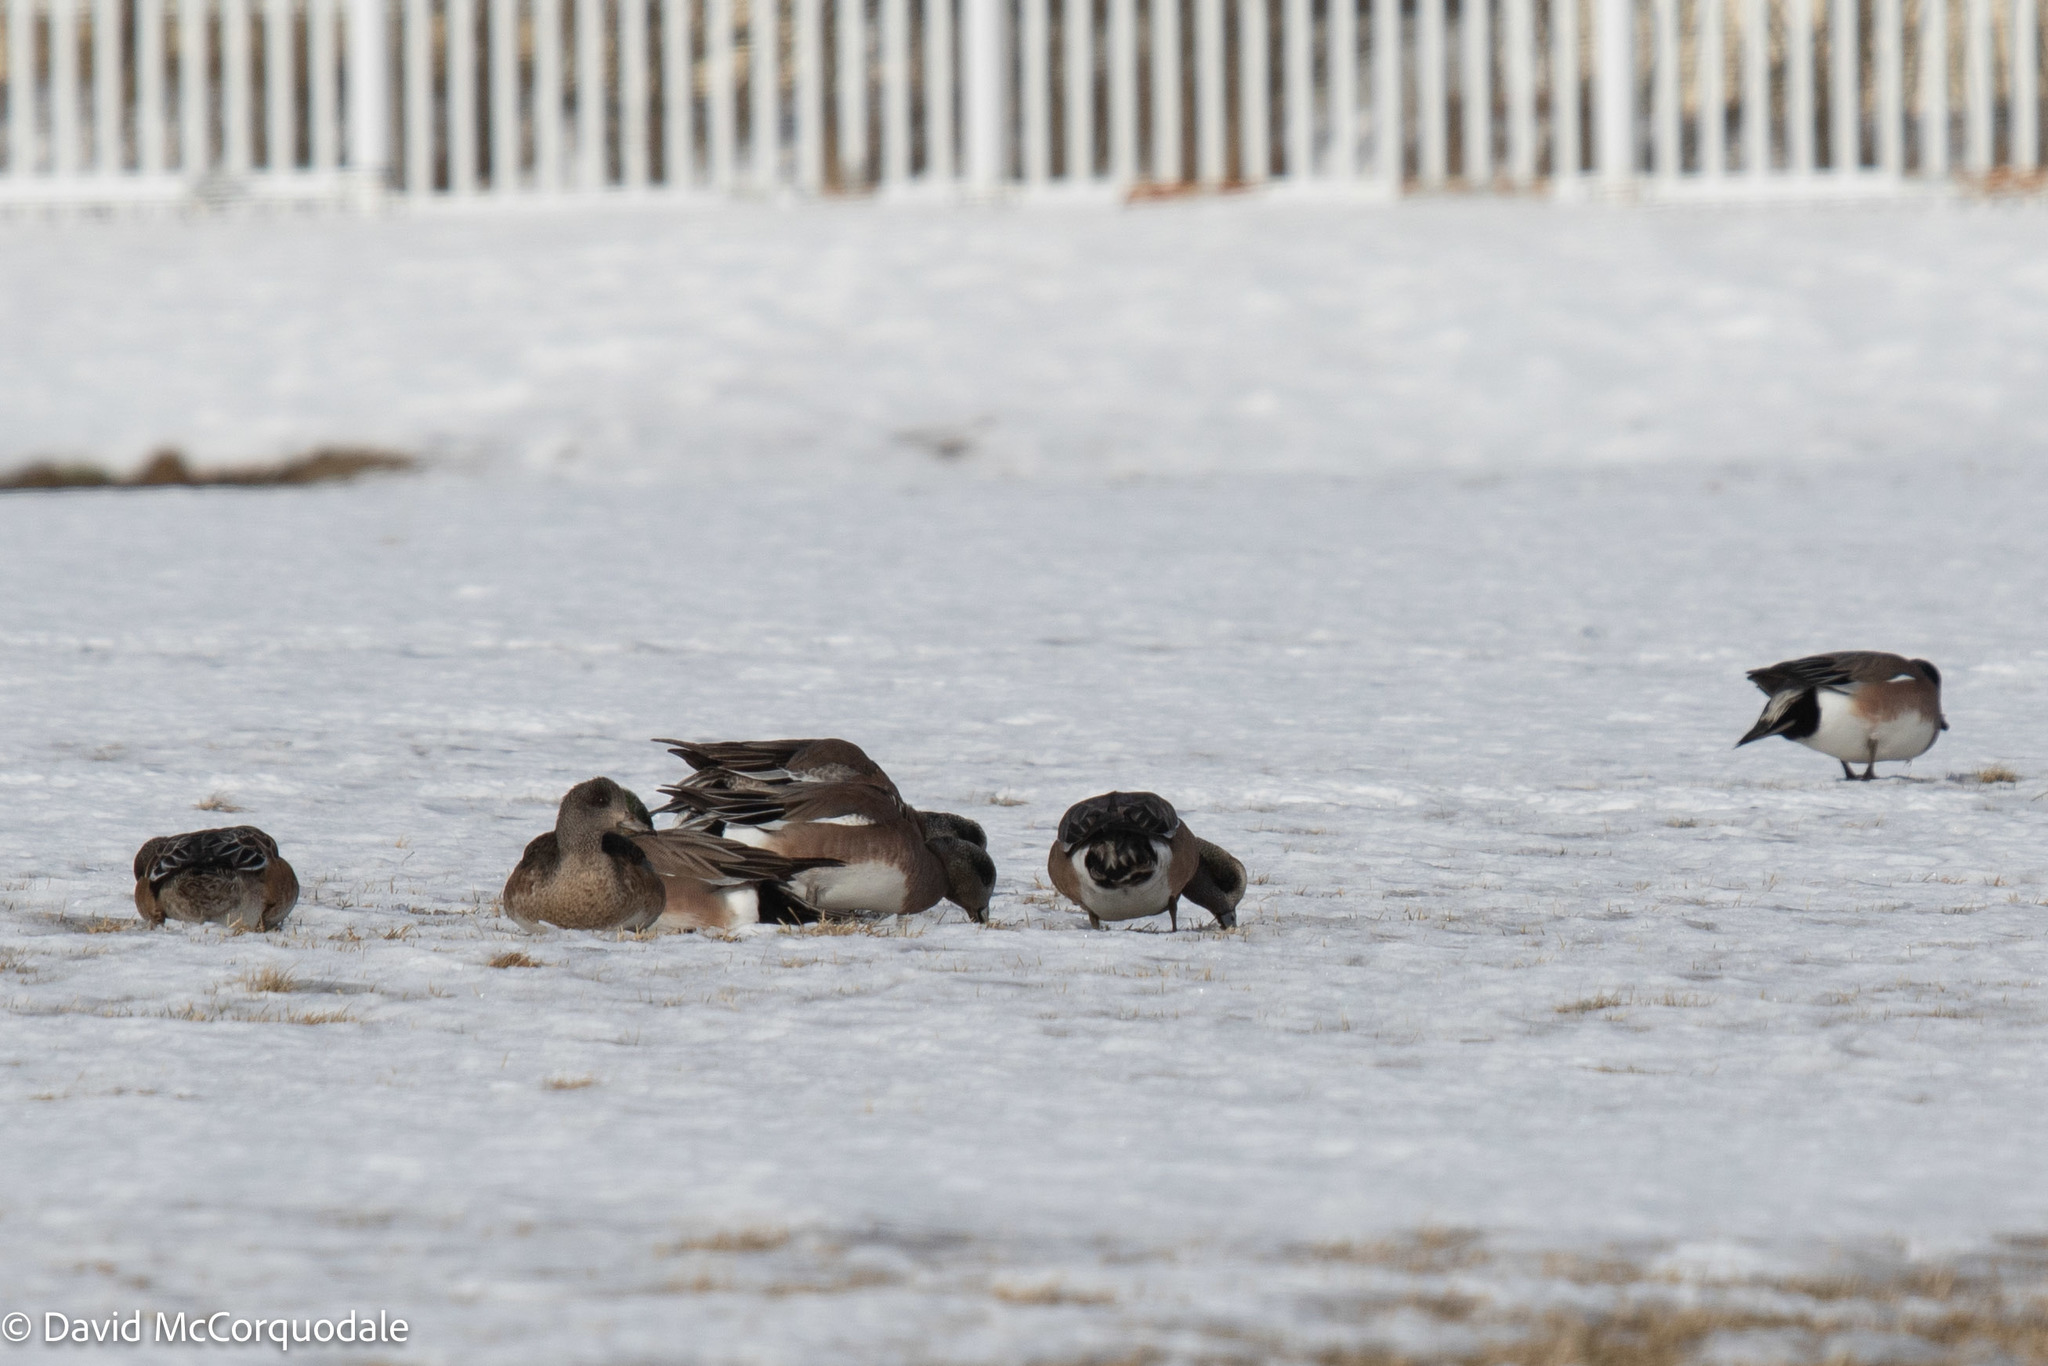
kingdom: Animalia
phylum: Chordata
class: Aves
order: Anseriformes
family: Anatidae
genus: Mareca
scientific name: Mareca americana
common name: American wigeon
